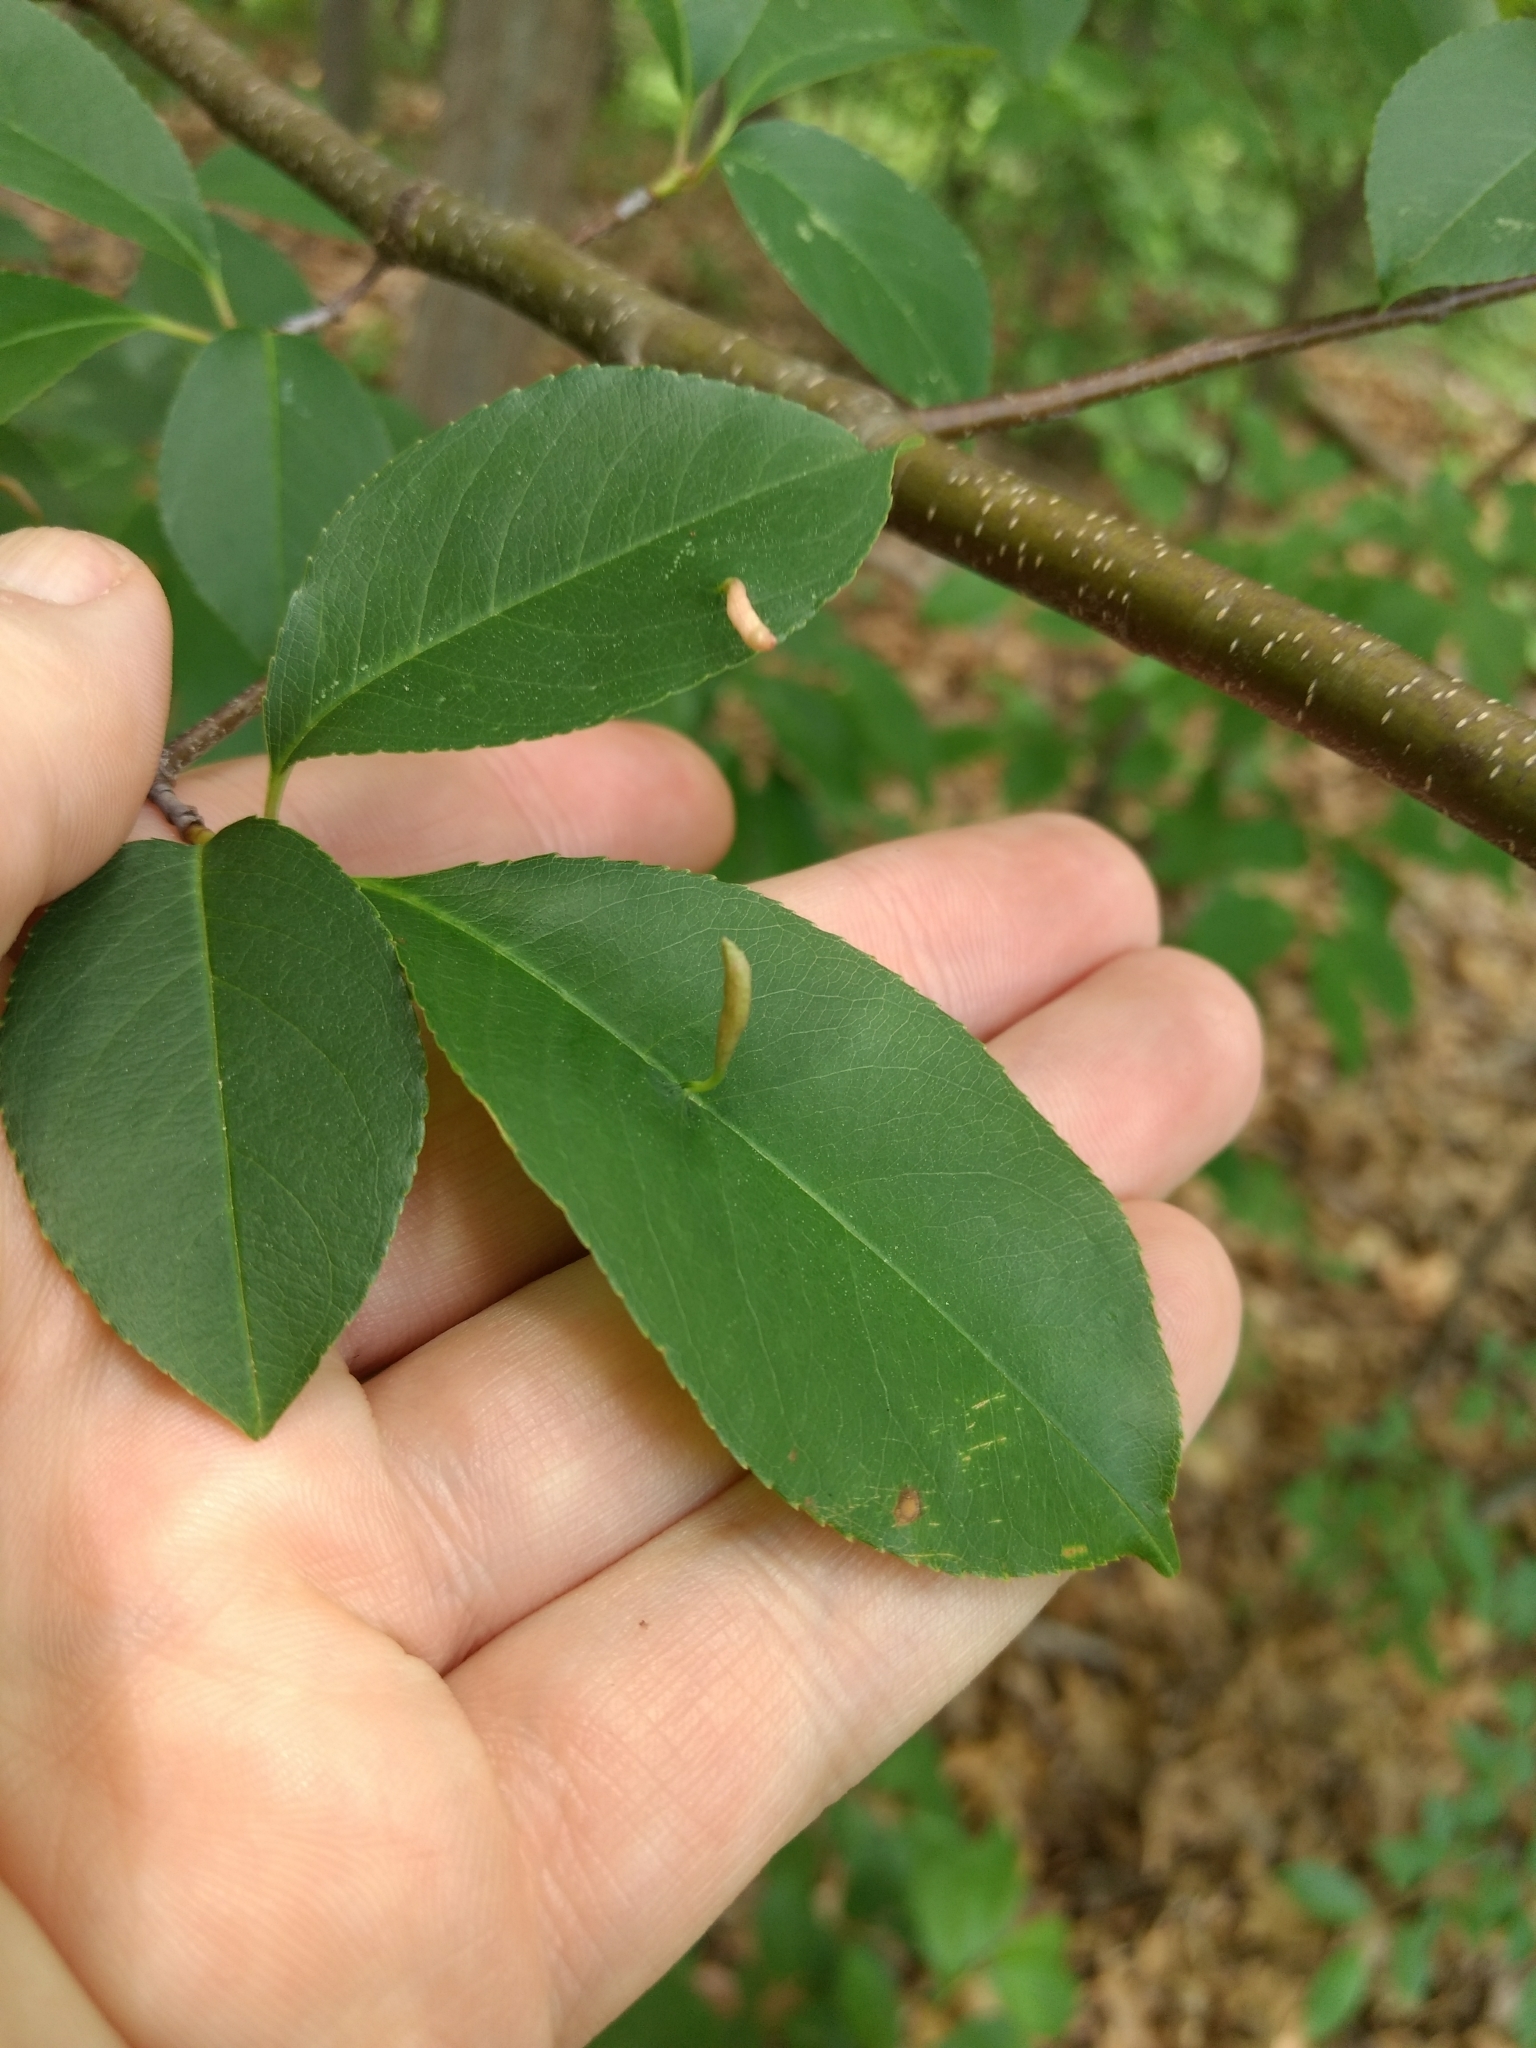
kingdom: Animalia
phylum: Arthropoda
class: Arachnida
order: Trombidiformes
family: Eriophyidae
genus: Eriophyes
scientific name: Eriophyes
